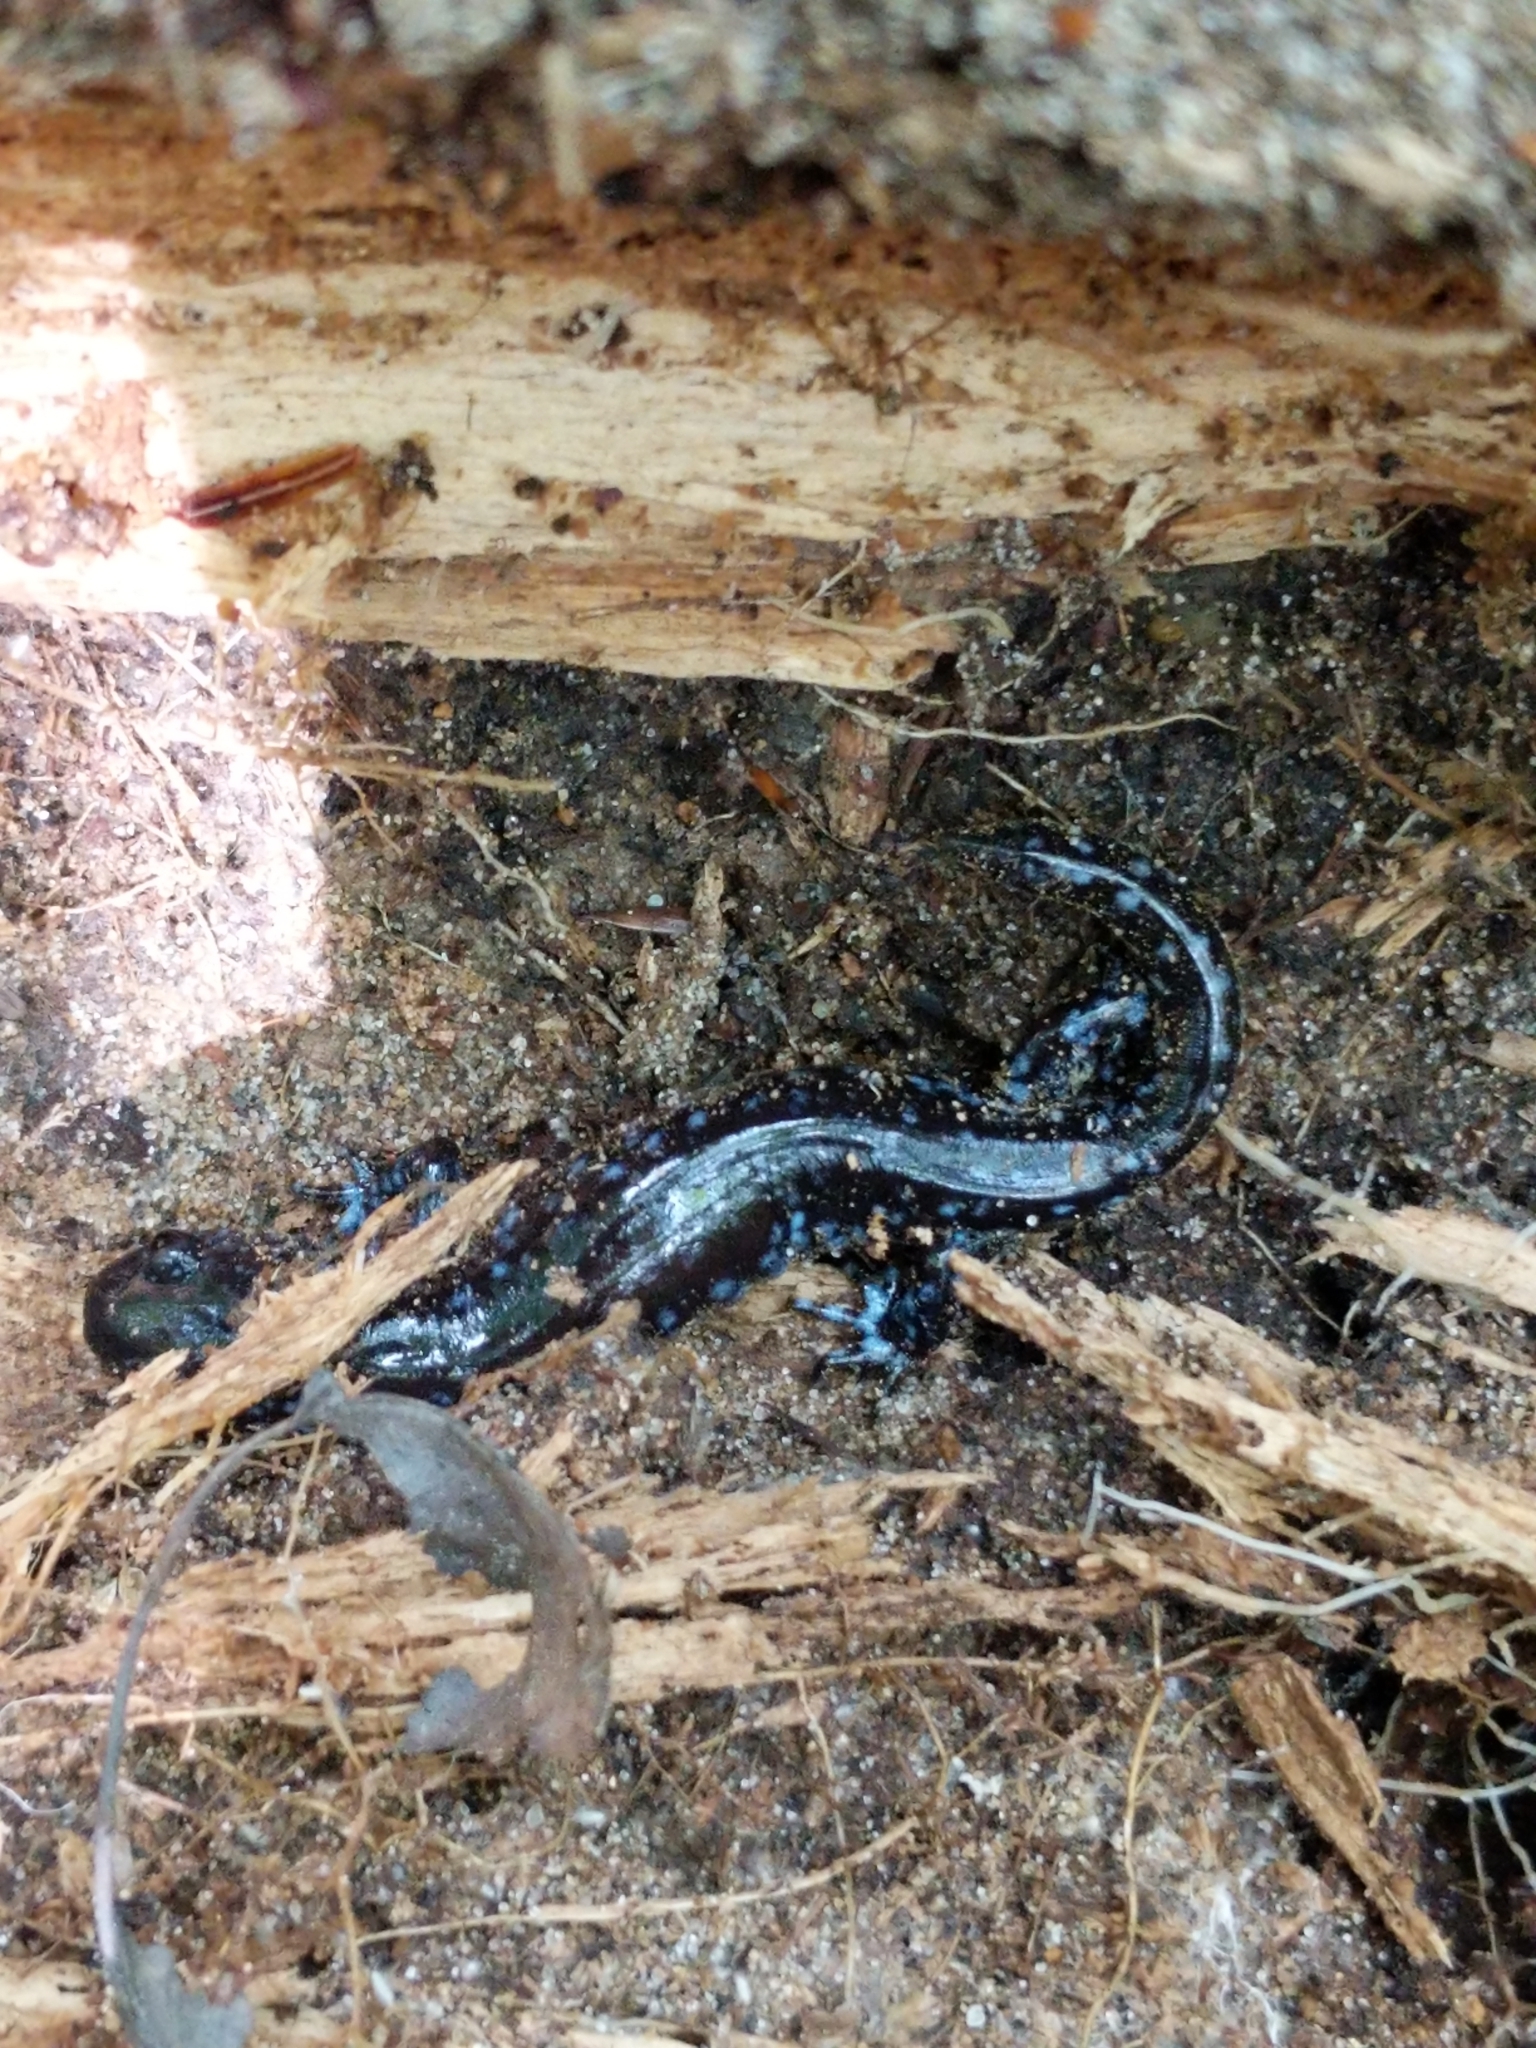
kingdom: Animalia
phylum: Chordata
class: Amphibia
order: Caudata
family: Ambystomatidae
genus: Ambystoma
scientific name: Ambystoma laterale
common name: Blue-spotted salamander
